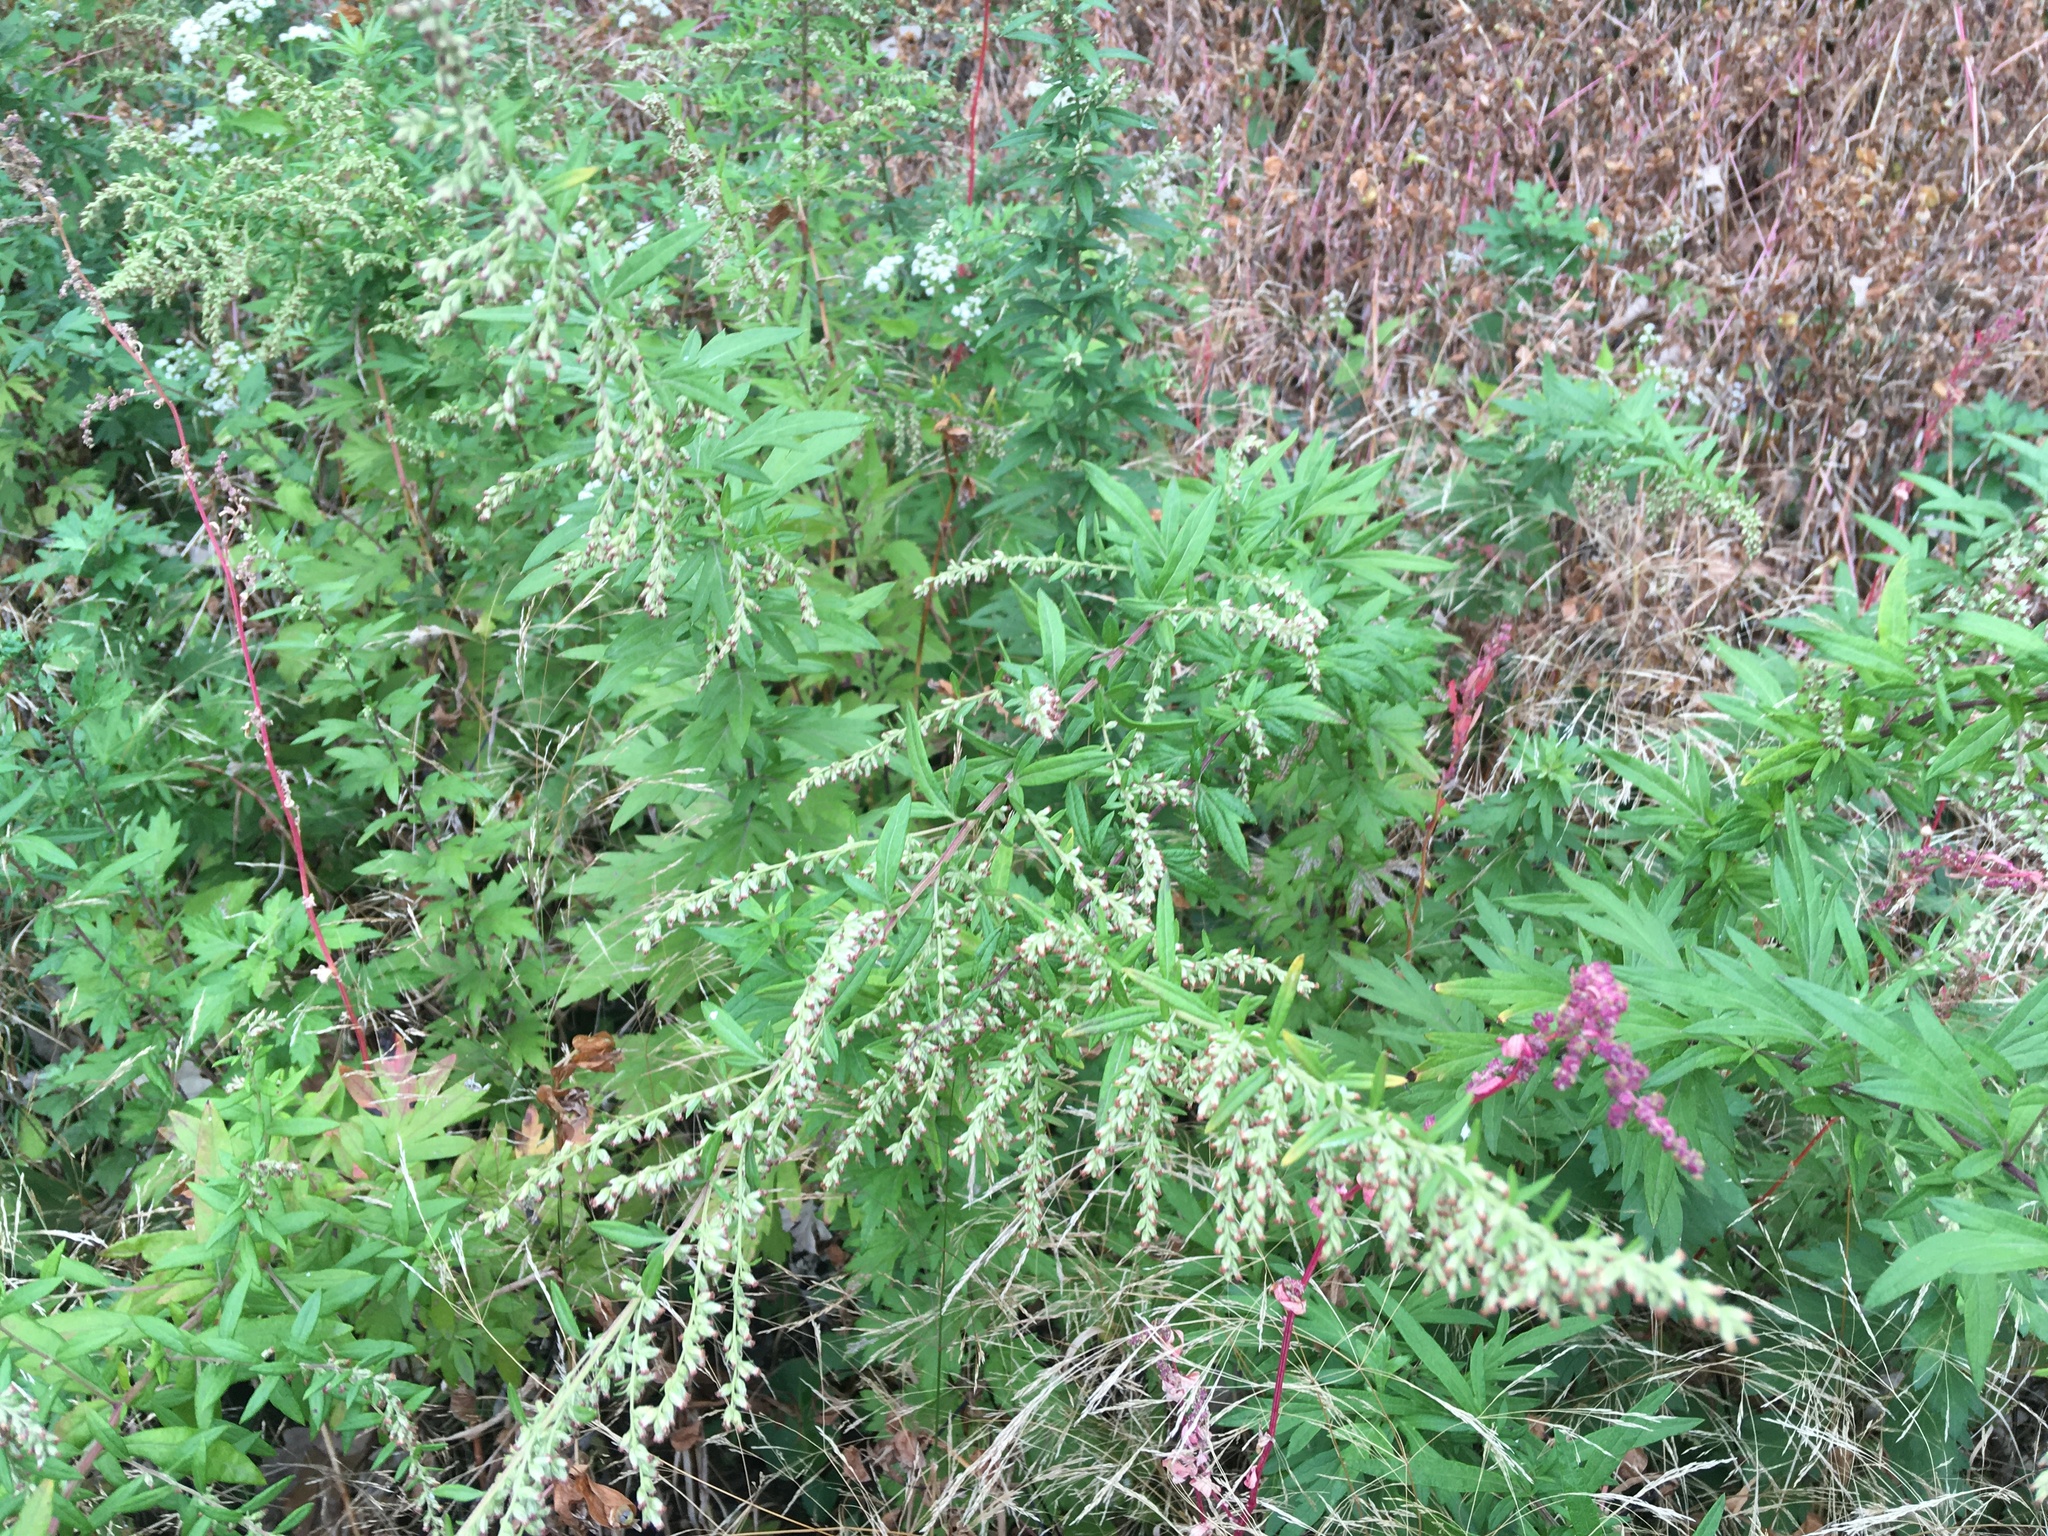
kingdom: Plantae
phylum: Tracheophyta
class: Magnoliopsida
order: Asterales
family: Asteraceae
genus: Artemisia
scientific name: Artemisia vulgaris
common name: Mugwort
